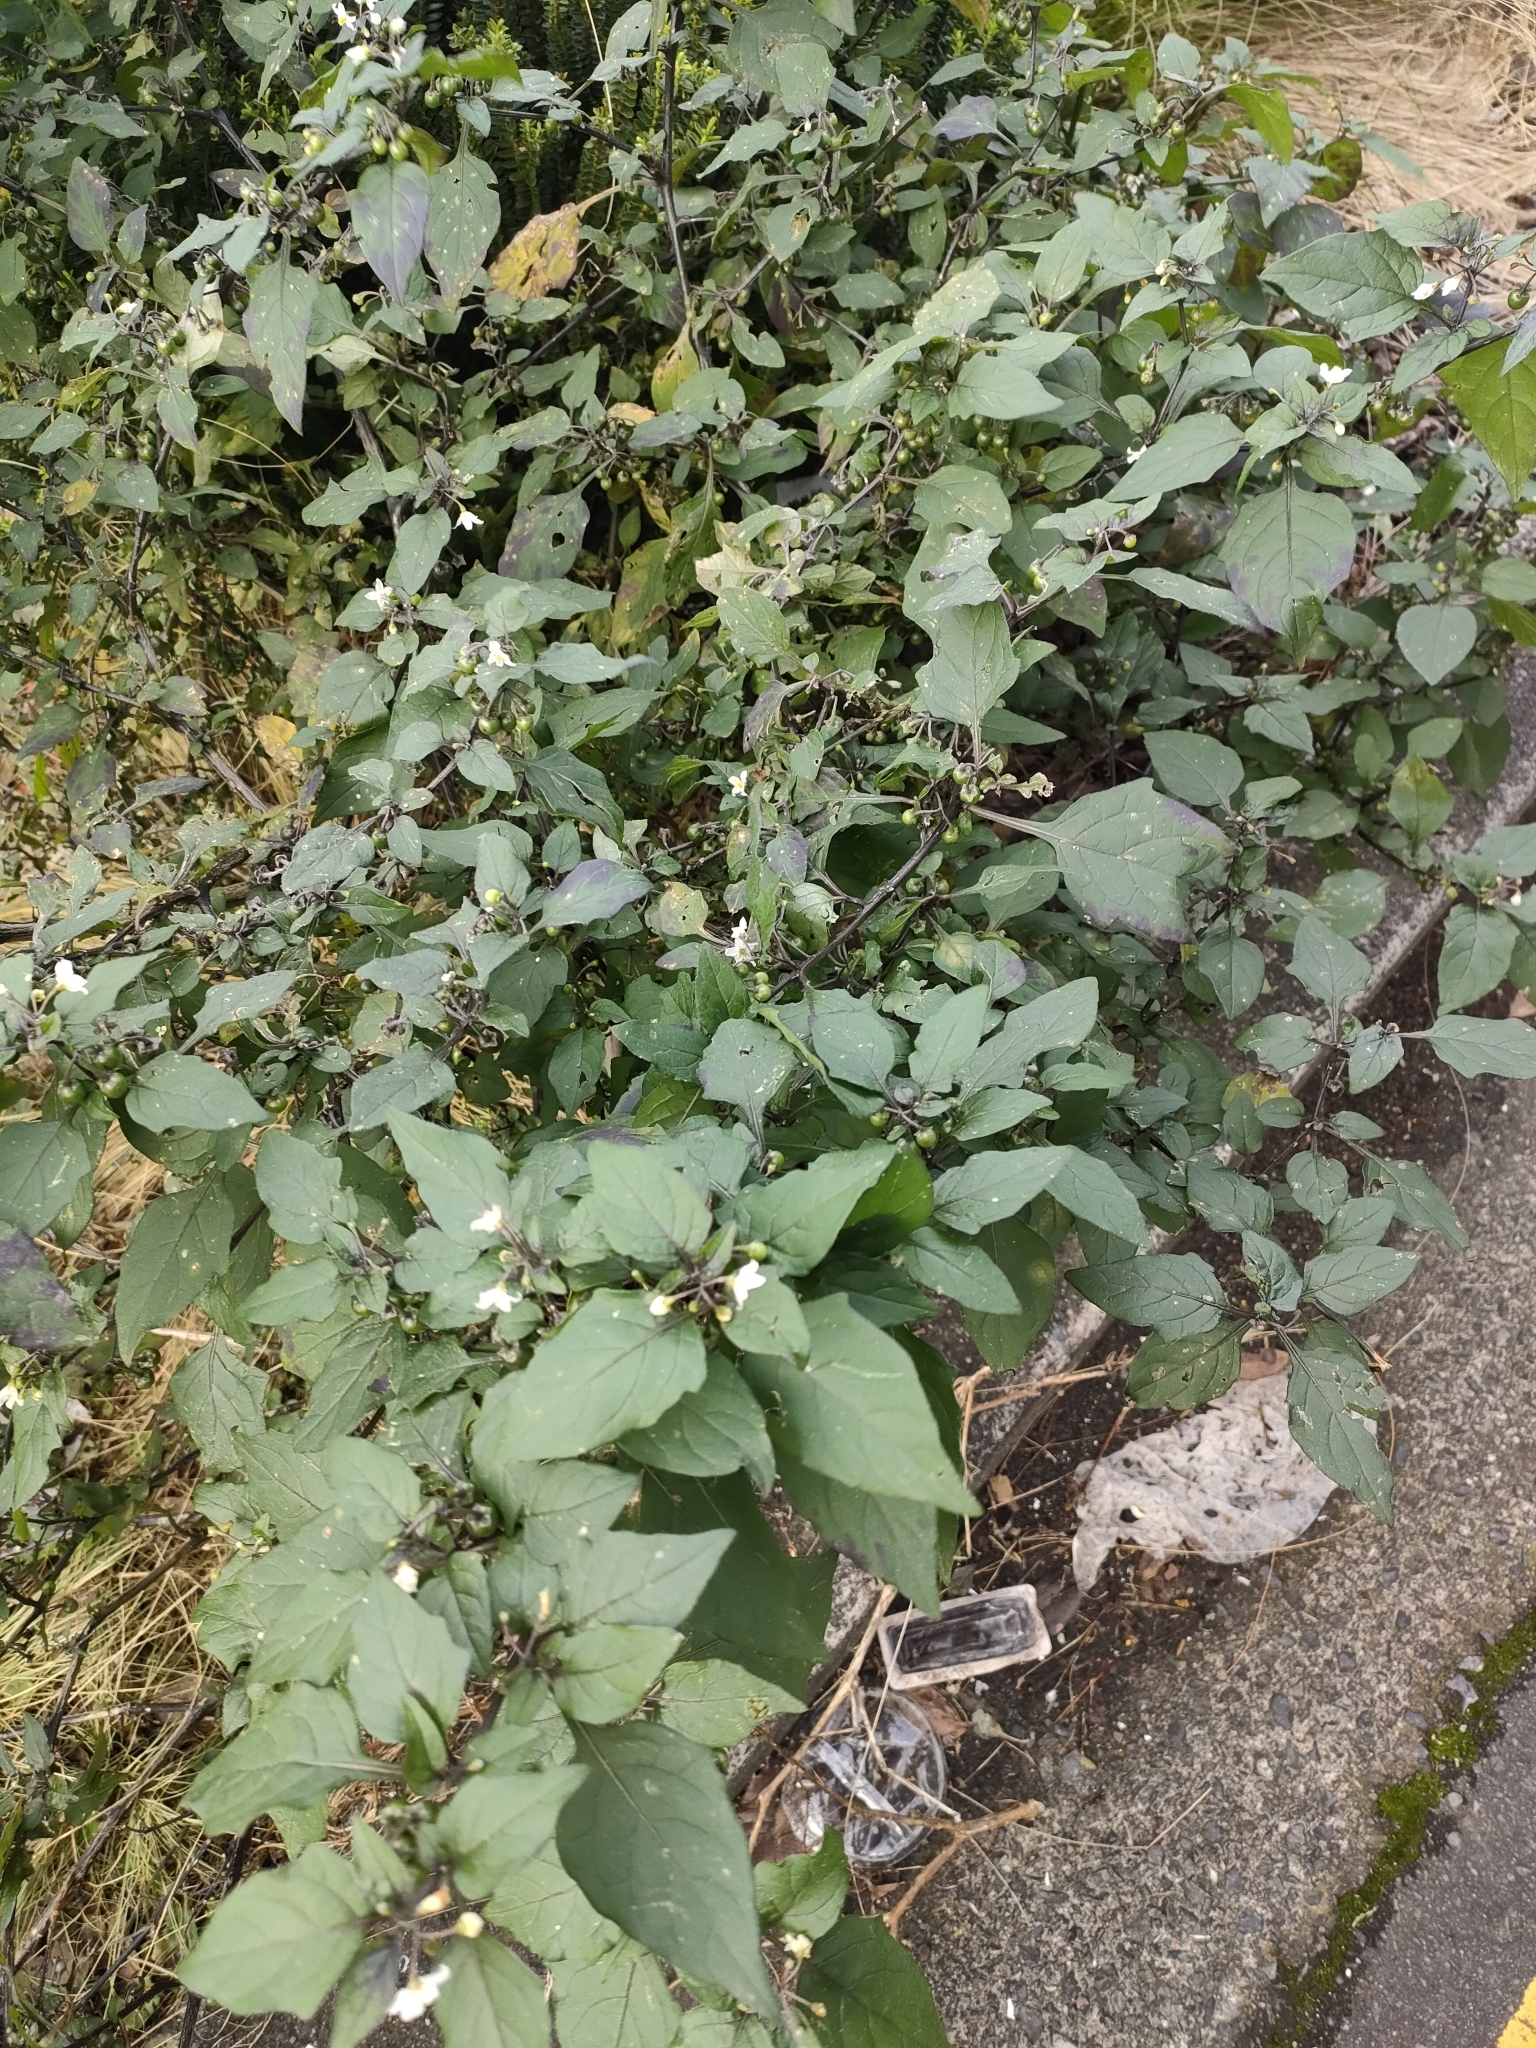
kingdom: Plantae
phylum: Tracheophyta
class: Magnoliopsida
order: Solanales
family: Solanaceae
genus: Solanum
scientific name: Solanum nigrum
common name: Black nightshade
